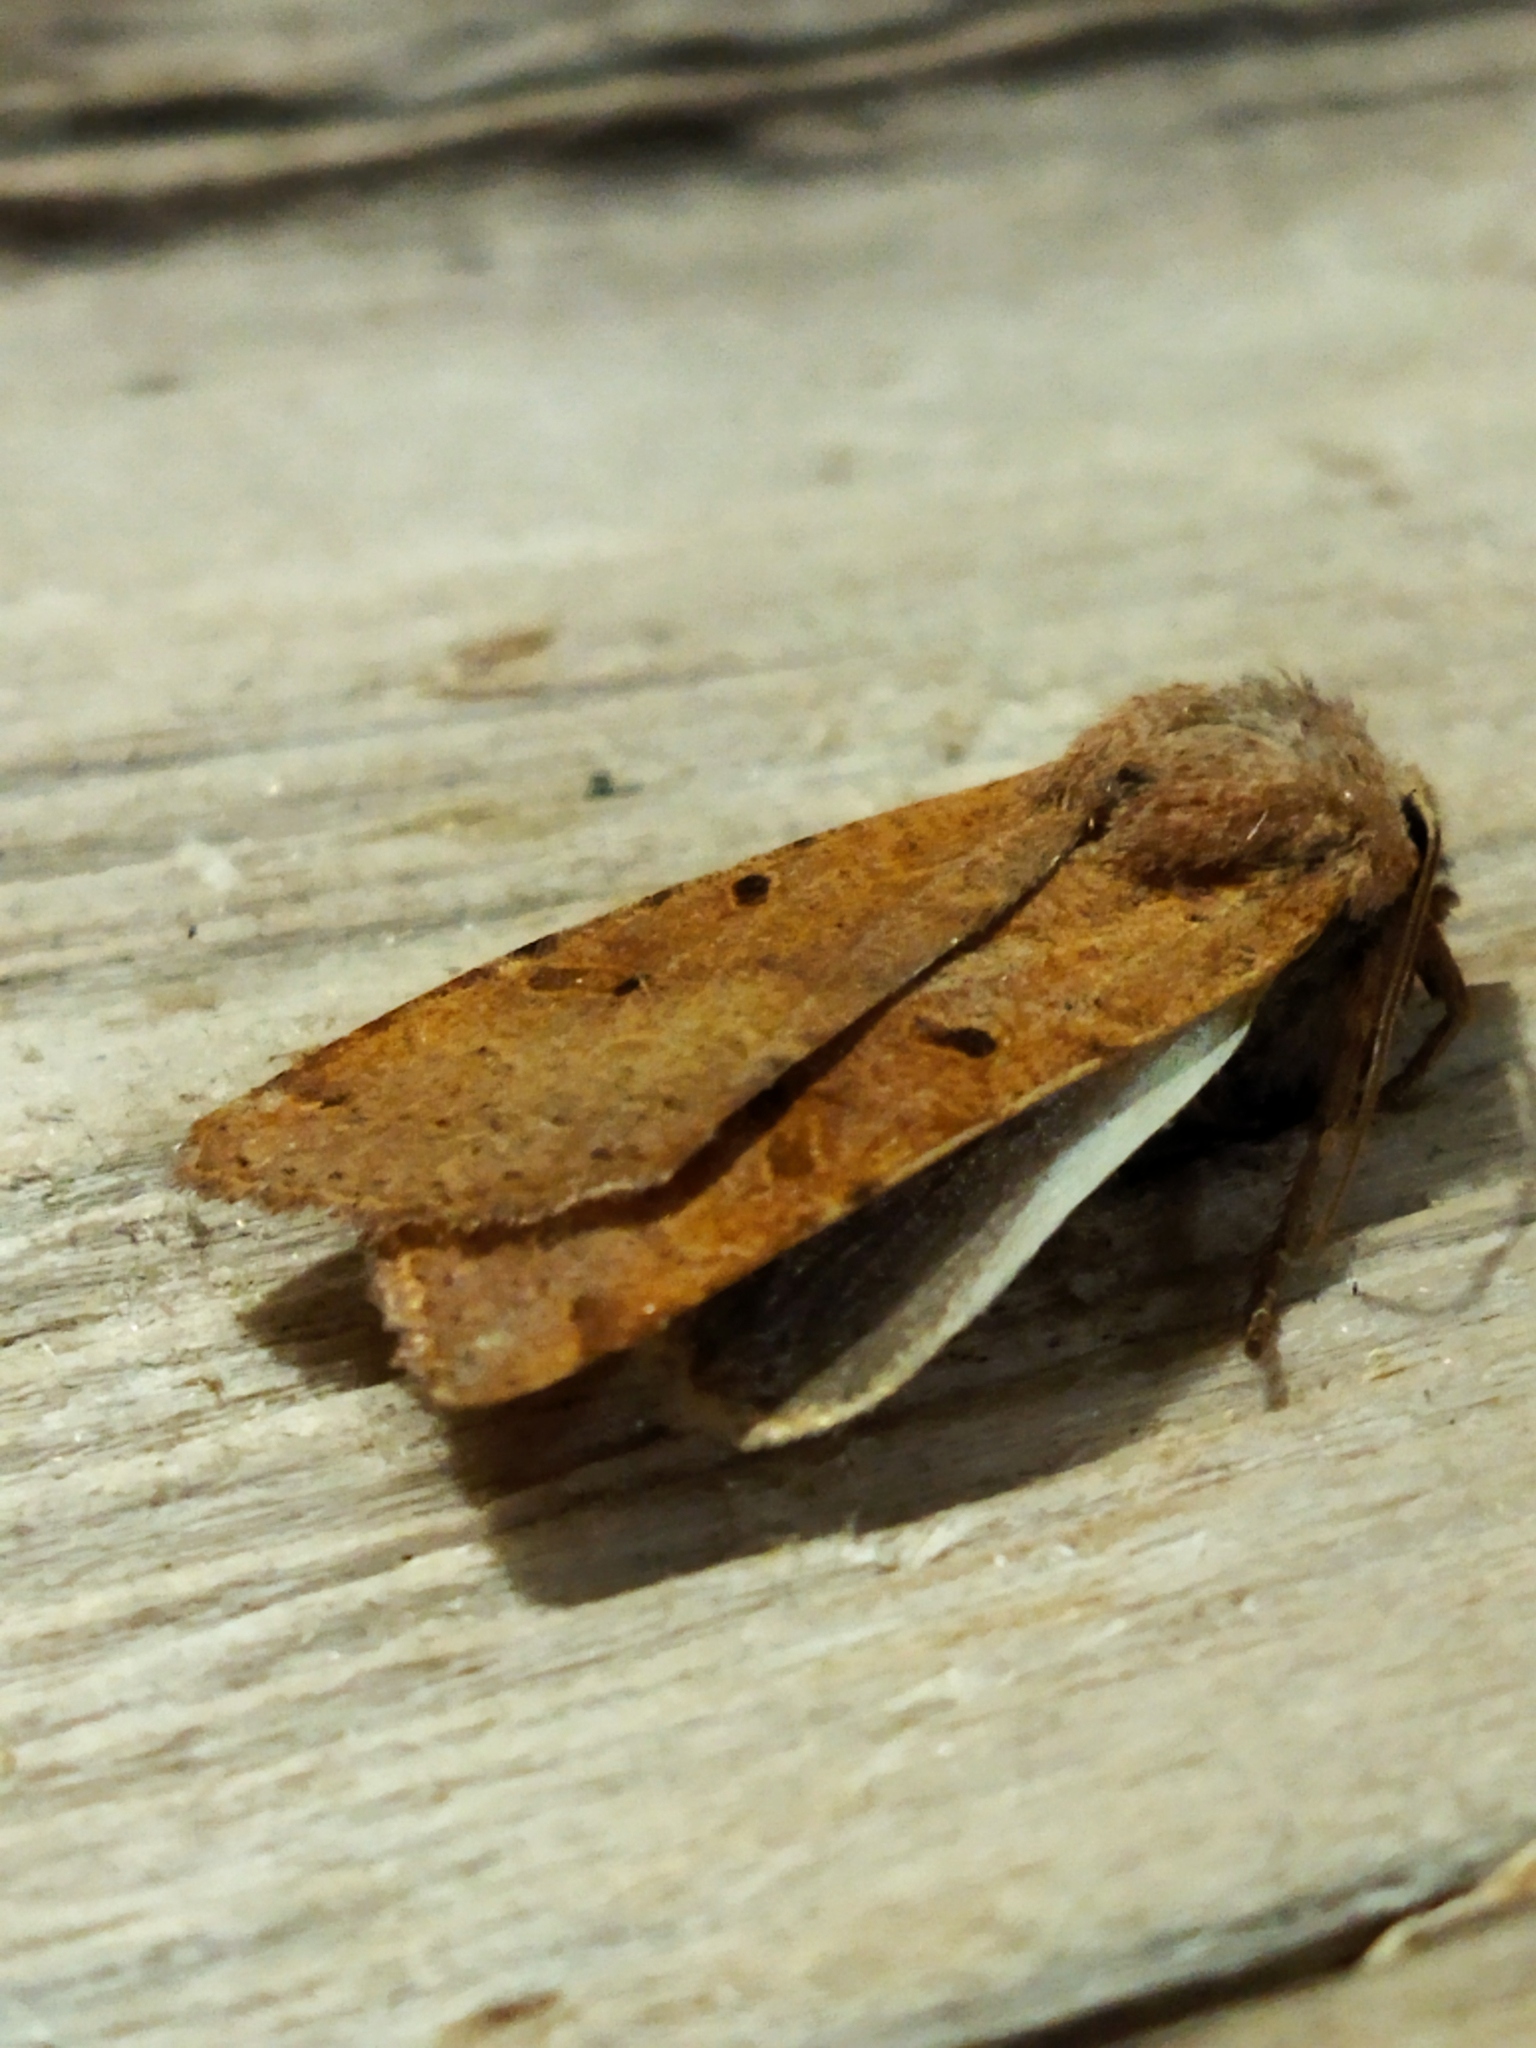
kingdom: Animalia
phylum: Arthropoda
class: Insecta
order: Lepidoptera
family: Noctuidae
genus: Agrochola
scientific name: Agrochola lychnidis
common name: Beaded chestnut
